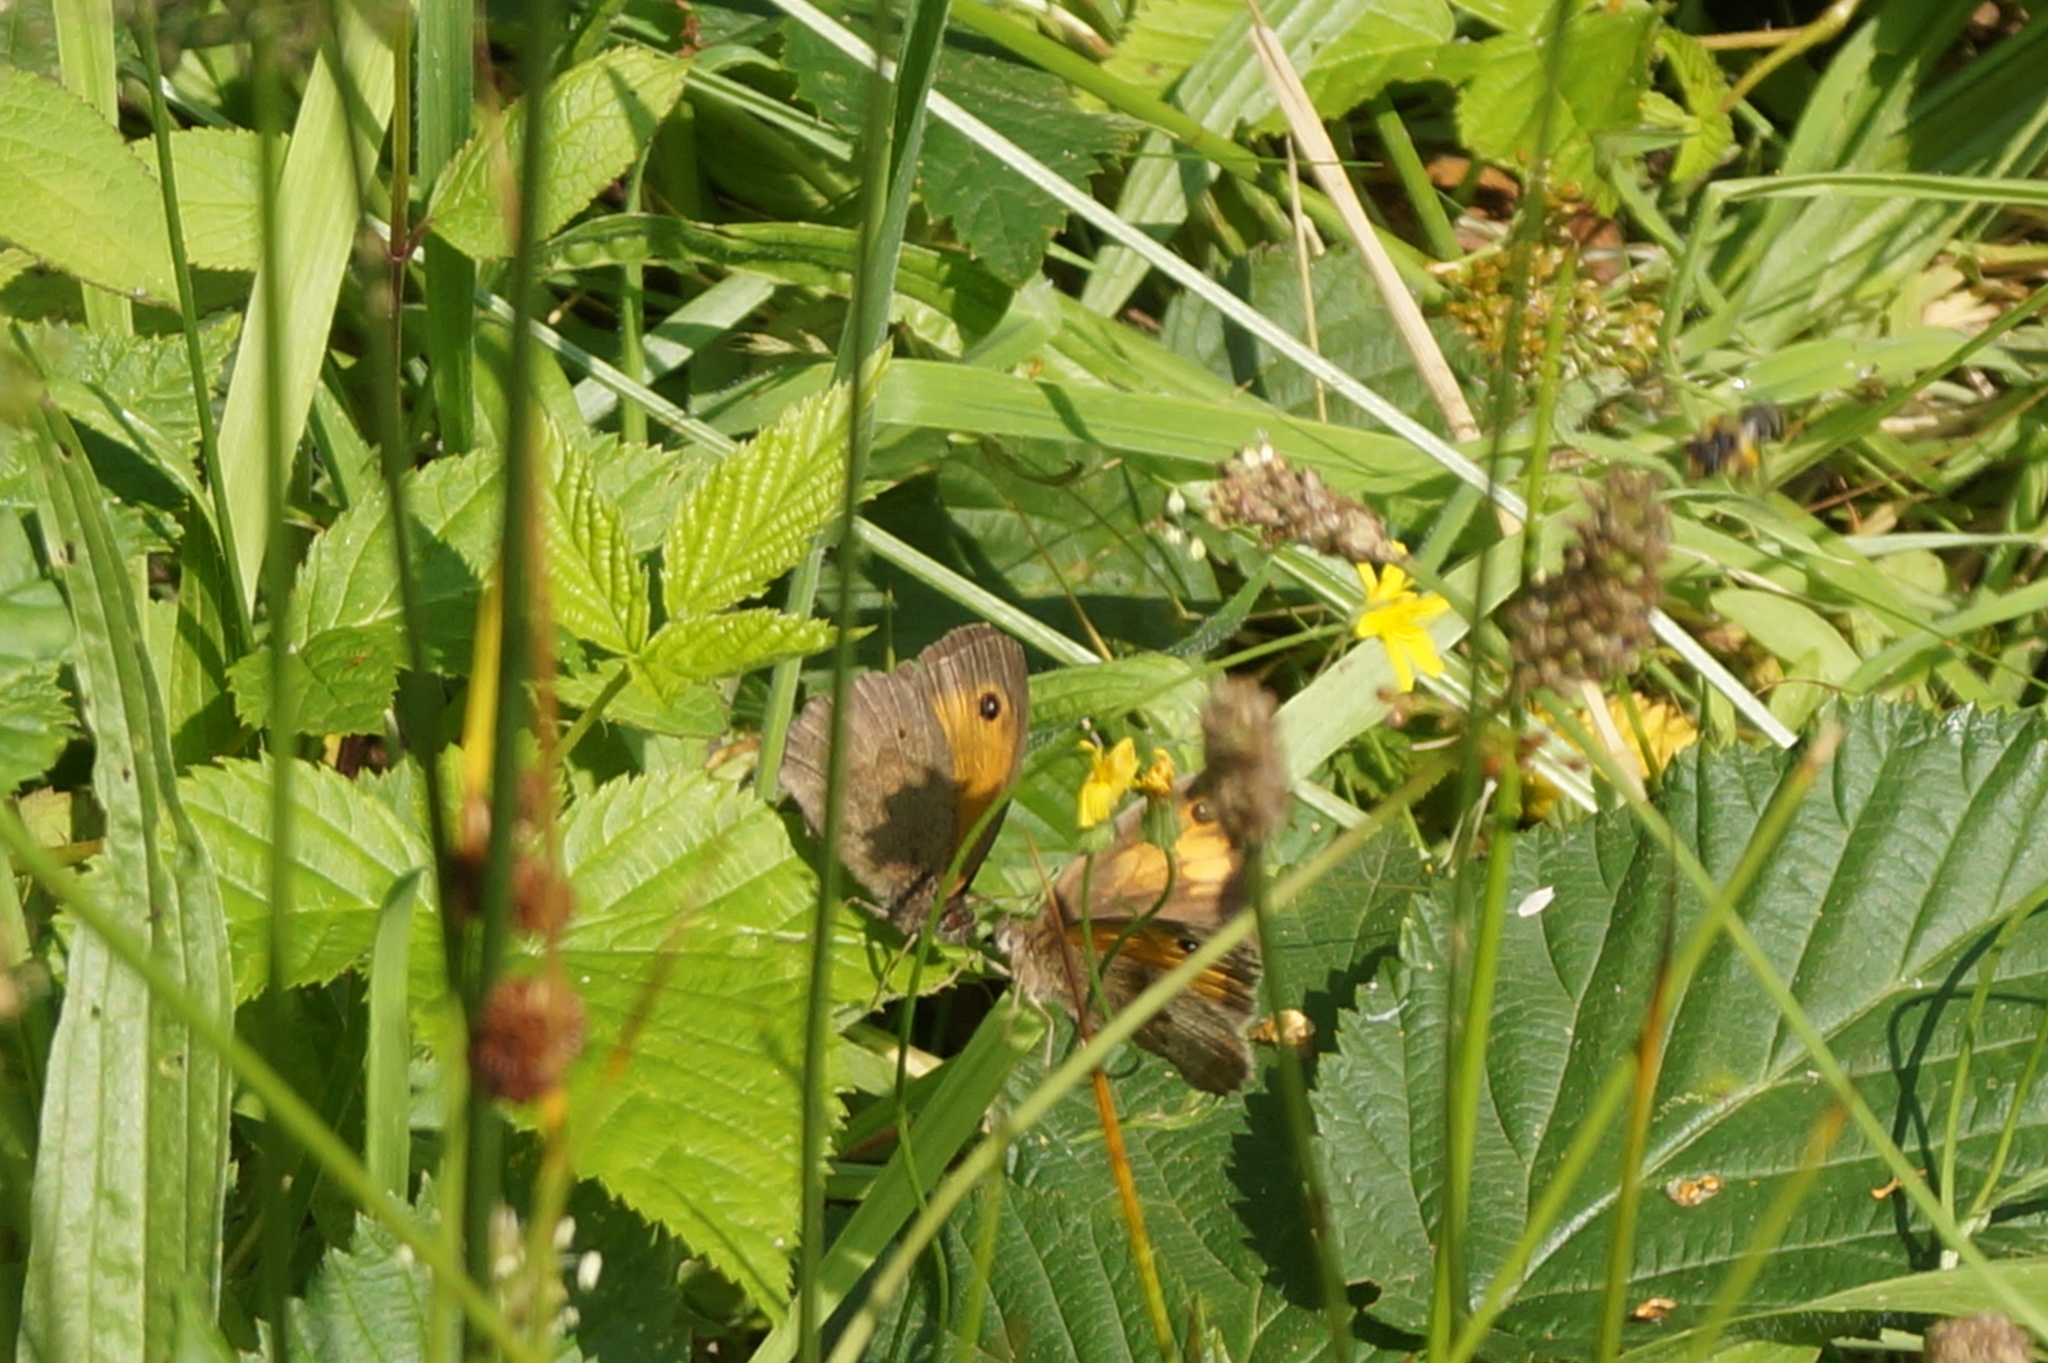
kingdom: Animalia
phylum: Arthropoda
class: Insecta
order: Lepidoptera
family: Nymphalidae
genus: Maniola
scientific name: Maniola jurtina
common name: Meadow brown
